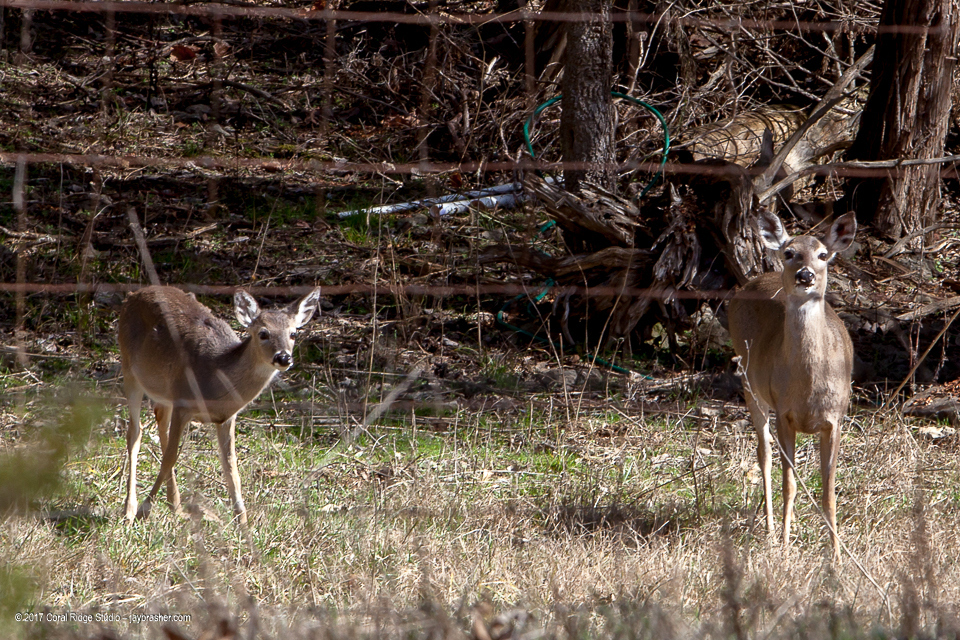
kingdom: Animalia
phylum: Chordata
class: Mammalia
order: Artiodactyla
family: Cervidae
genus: Odocoileus
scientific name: Odocoileus virginianus
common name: White-tailed deer
